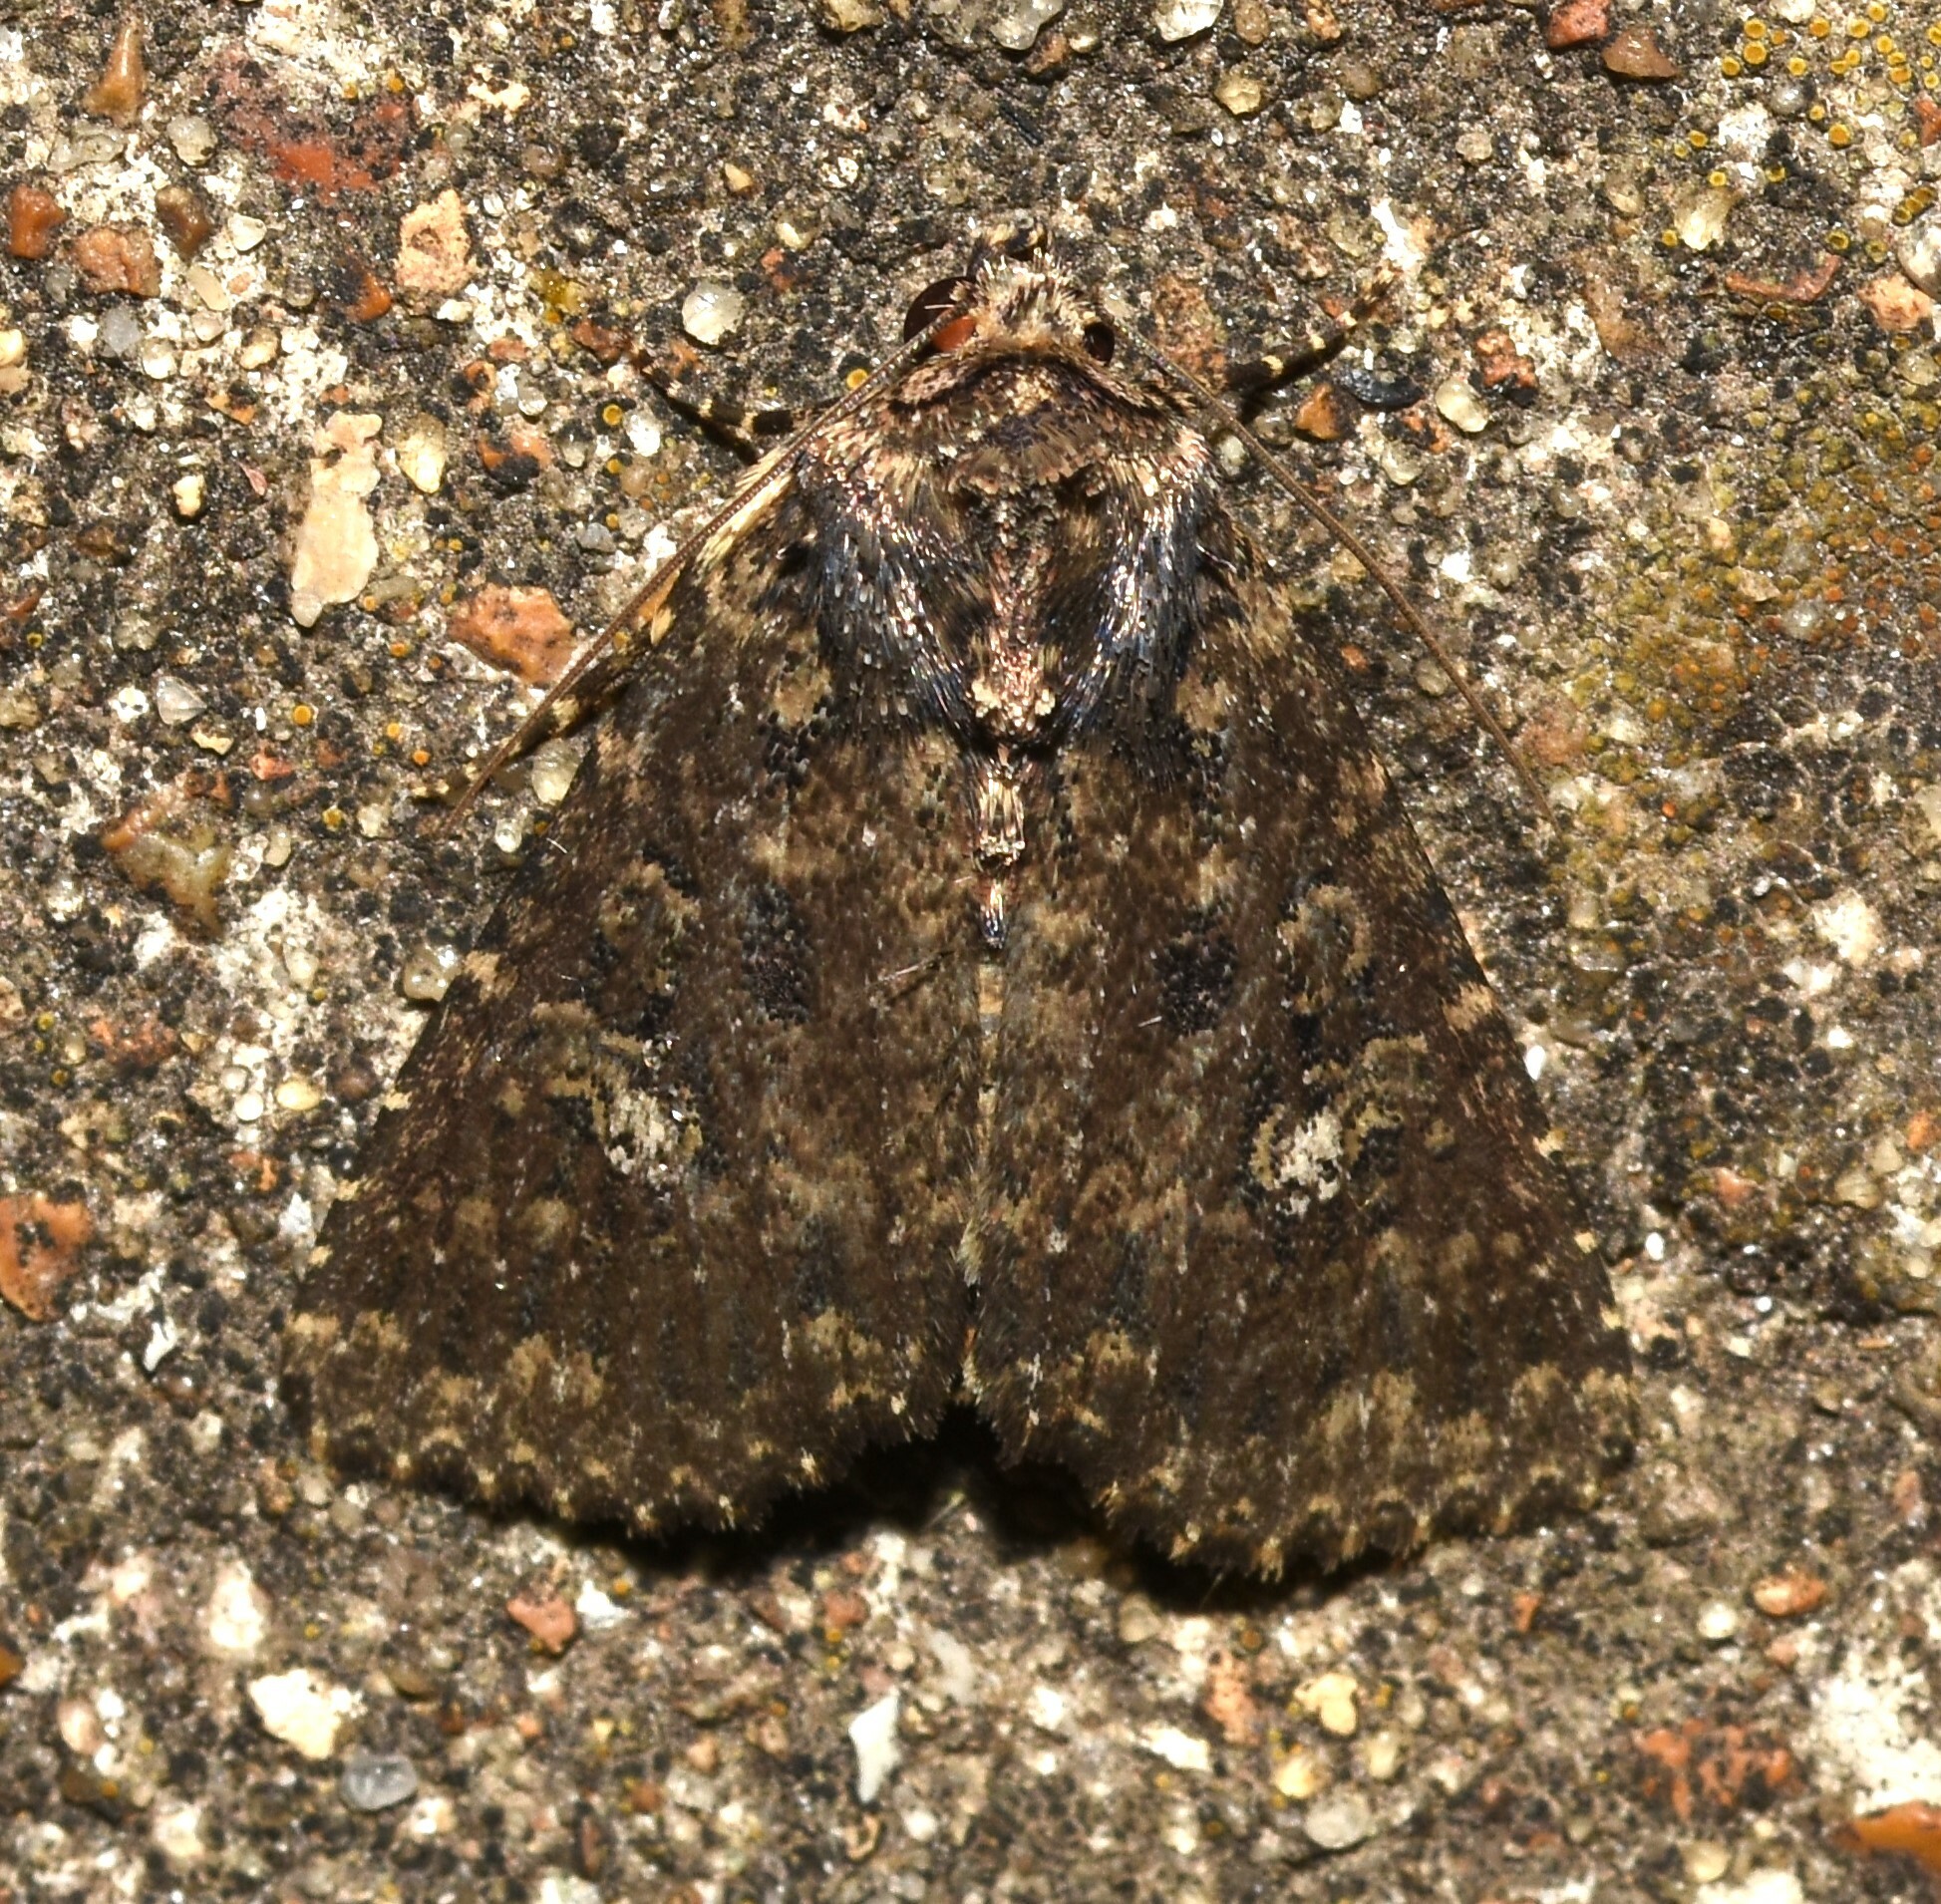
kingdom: Animalia
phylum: Arthropoda
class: Insecta
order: Lepidoptera
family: Noctuidae
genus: Condica
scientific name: Condica vecors
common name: Dusky groundling
